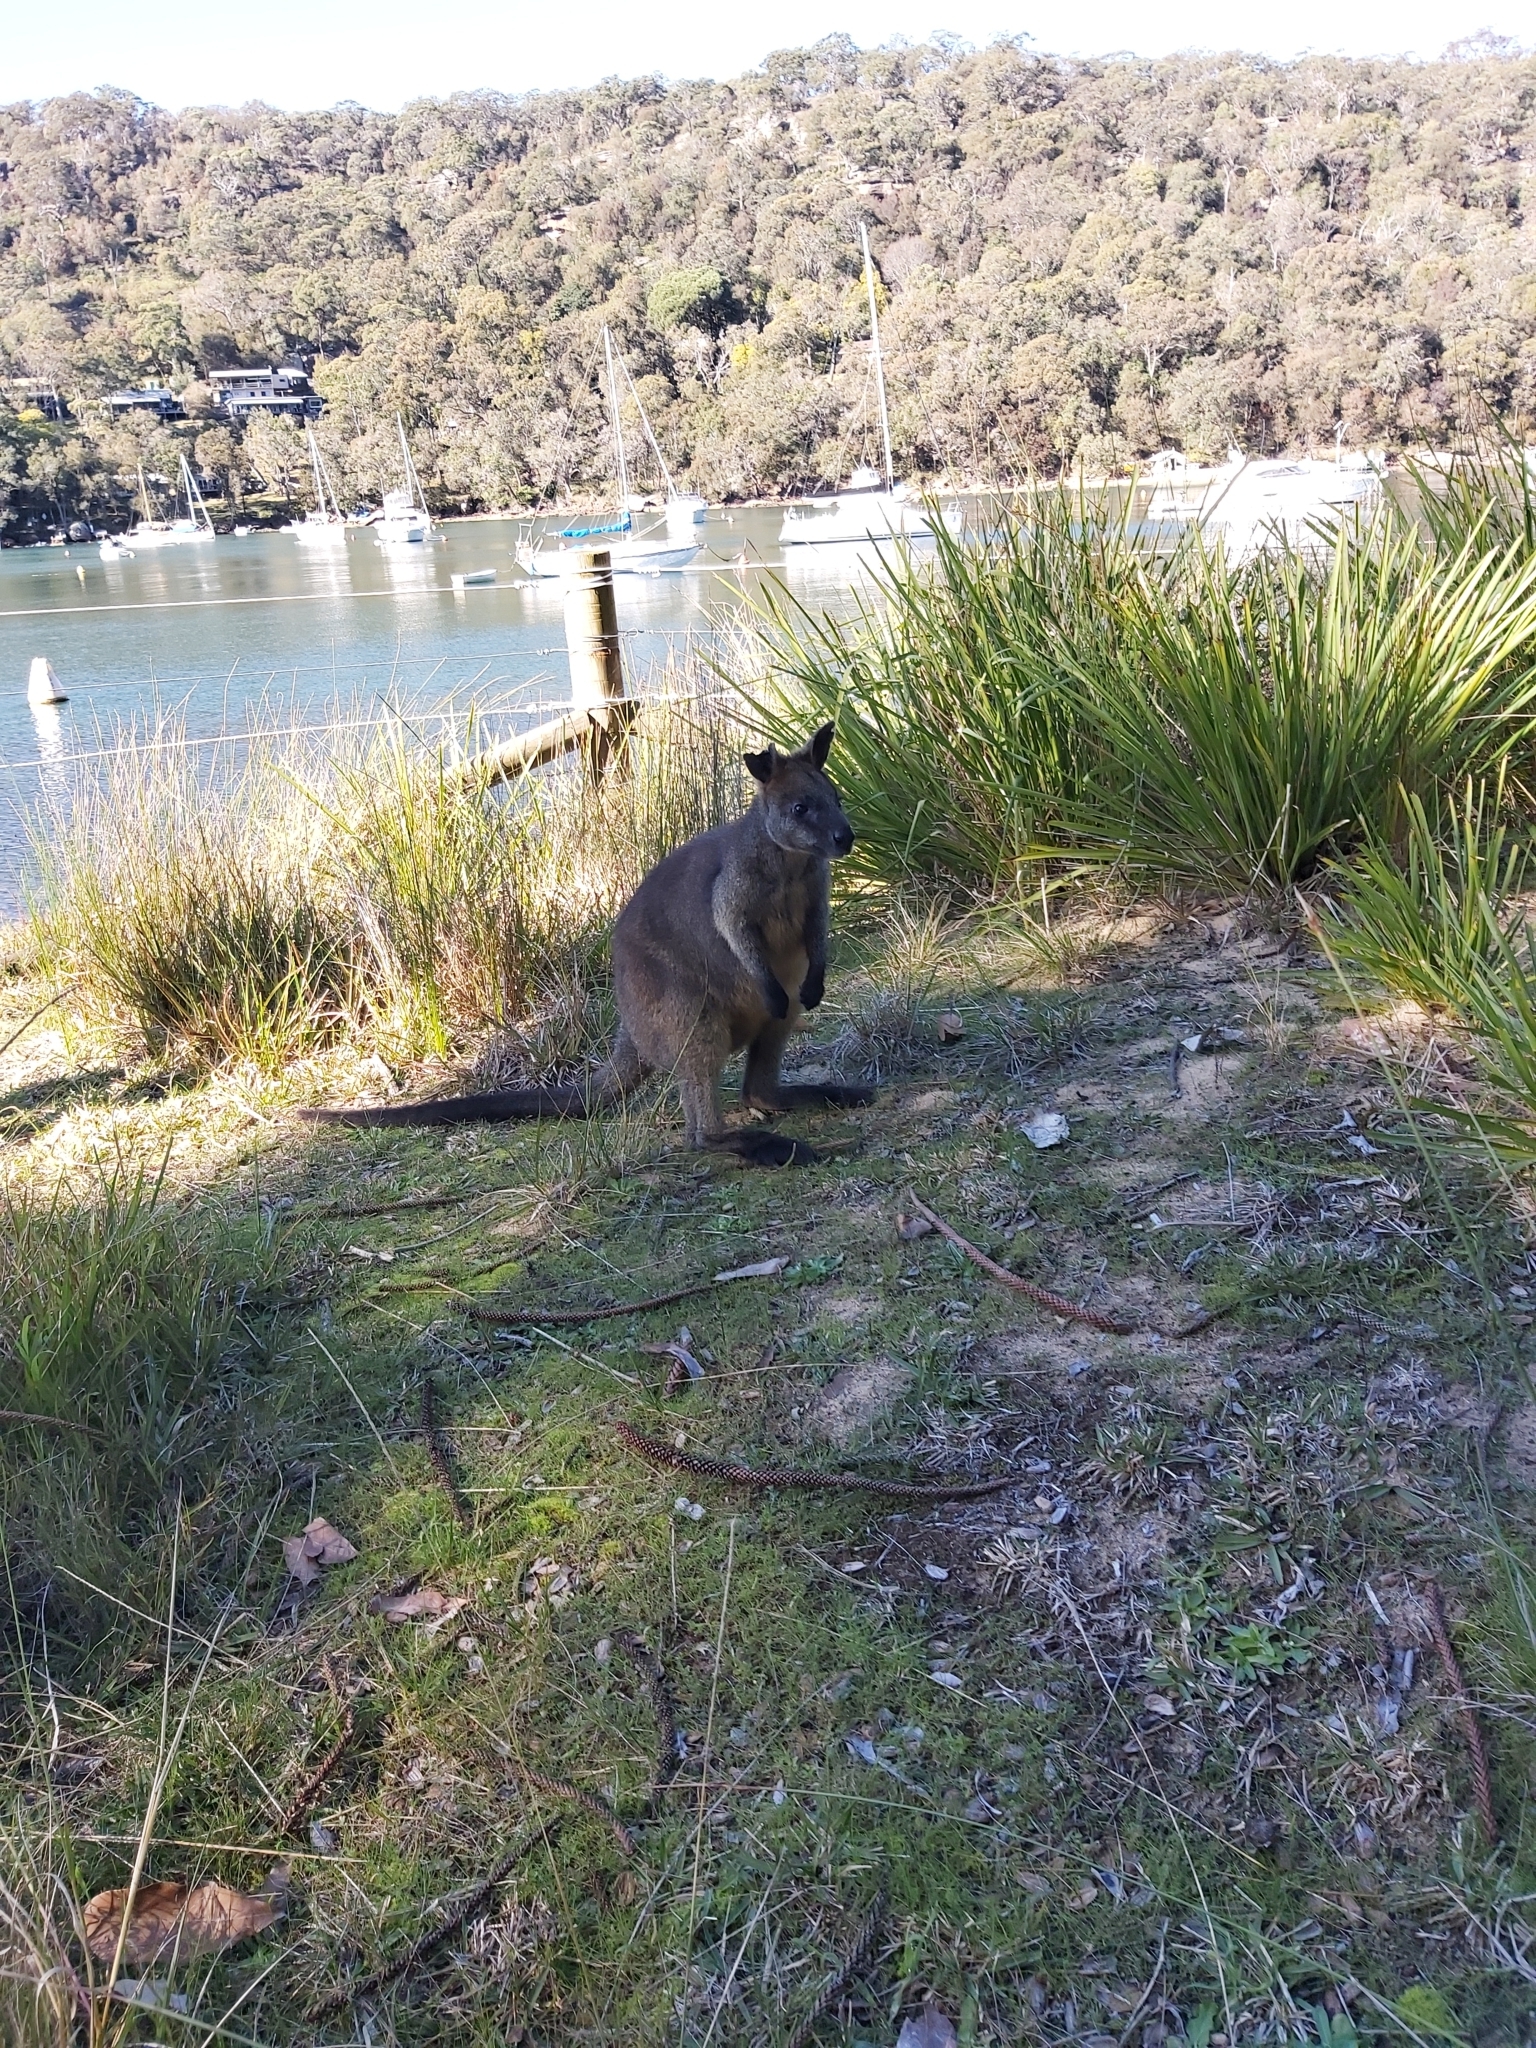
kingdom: Animalia
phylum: Chordata
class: Mammalia
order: Diprotodontia
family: Macropodidae
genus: Wallabia
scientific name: Wallabia bicolor
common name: Swamp wallaby
